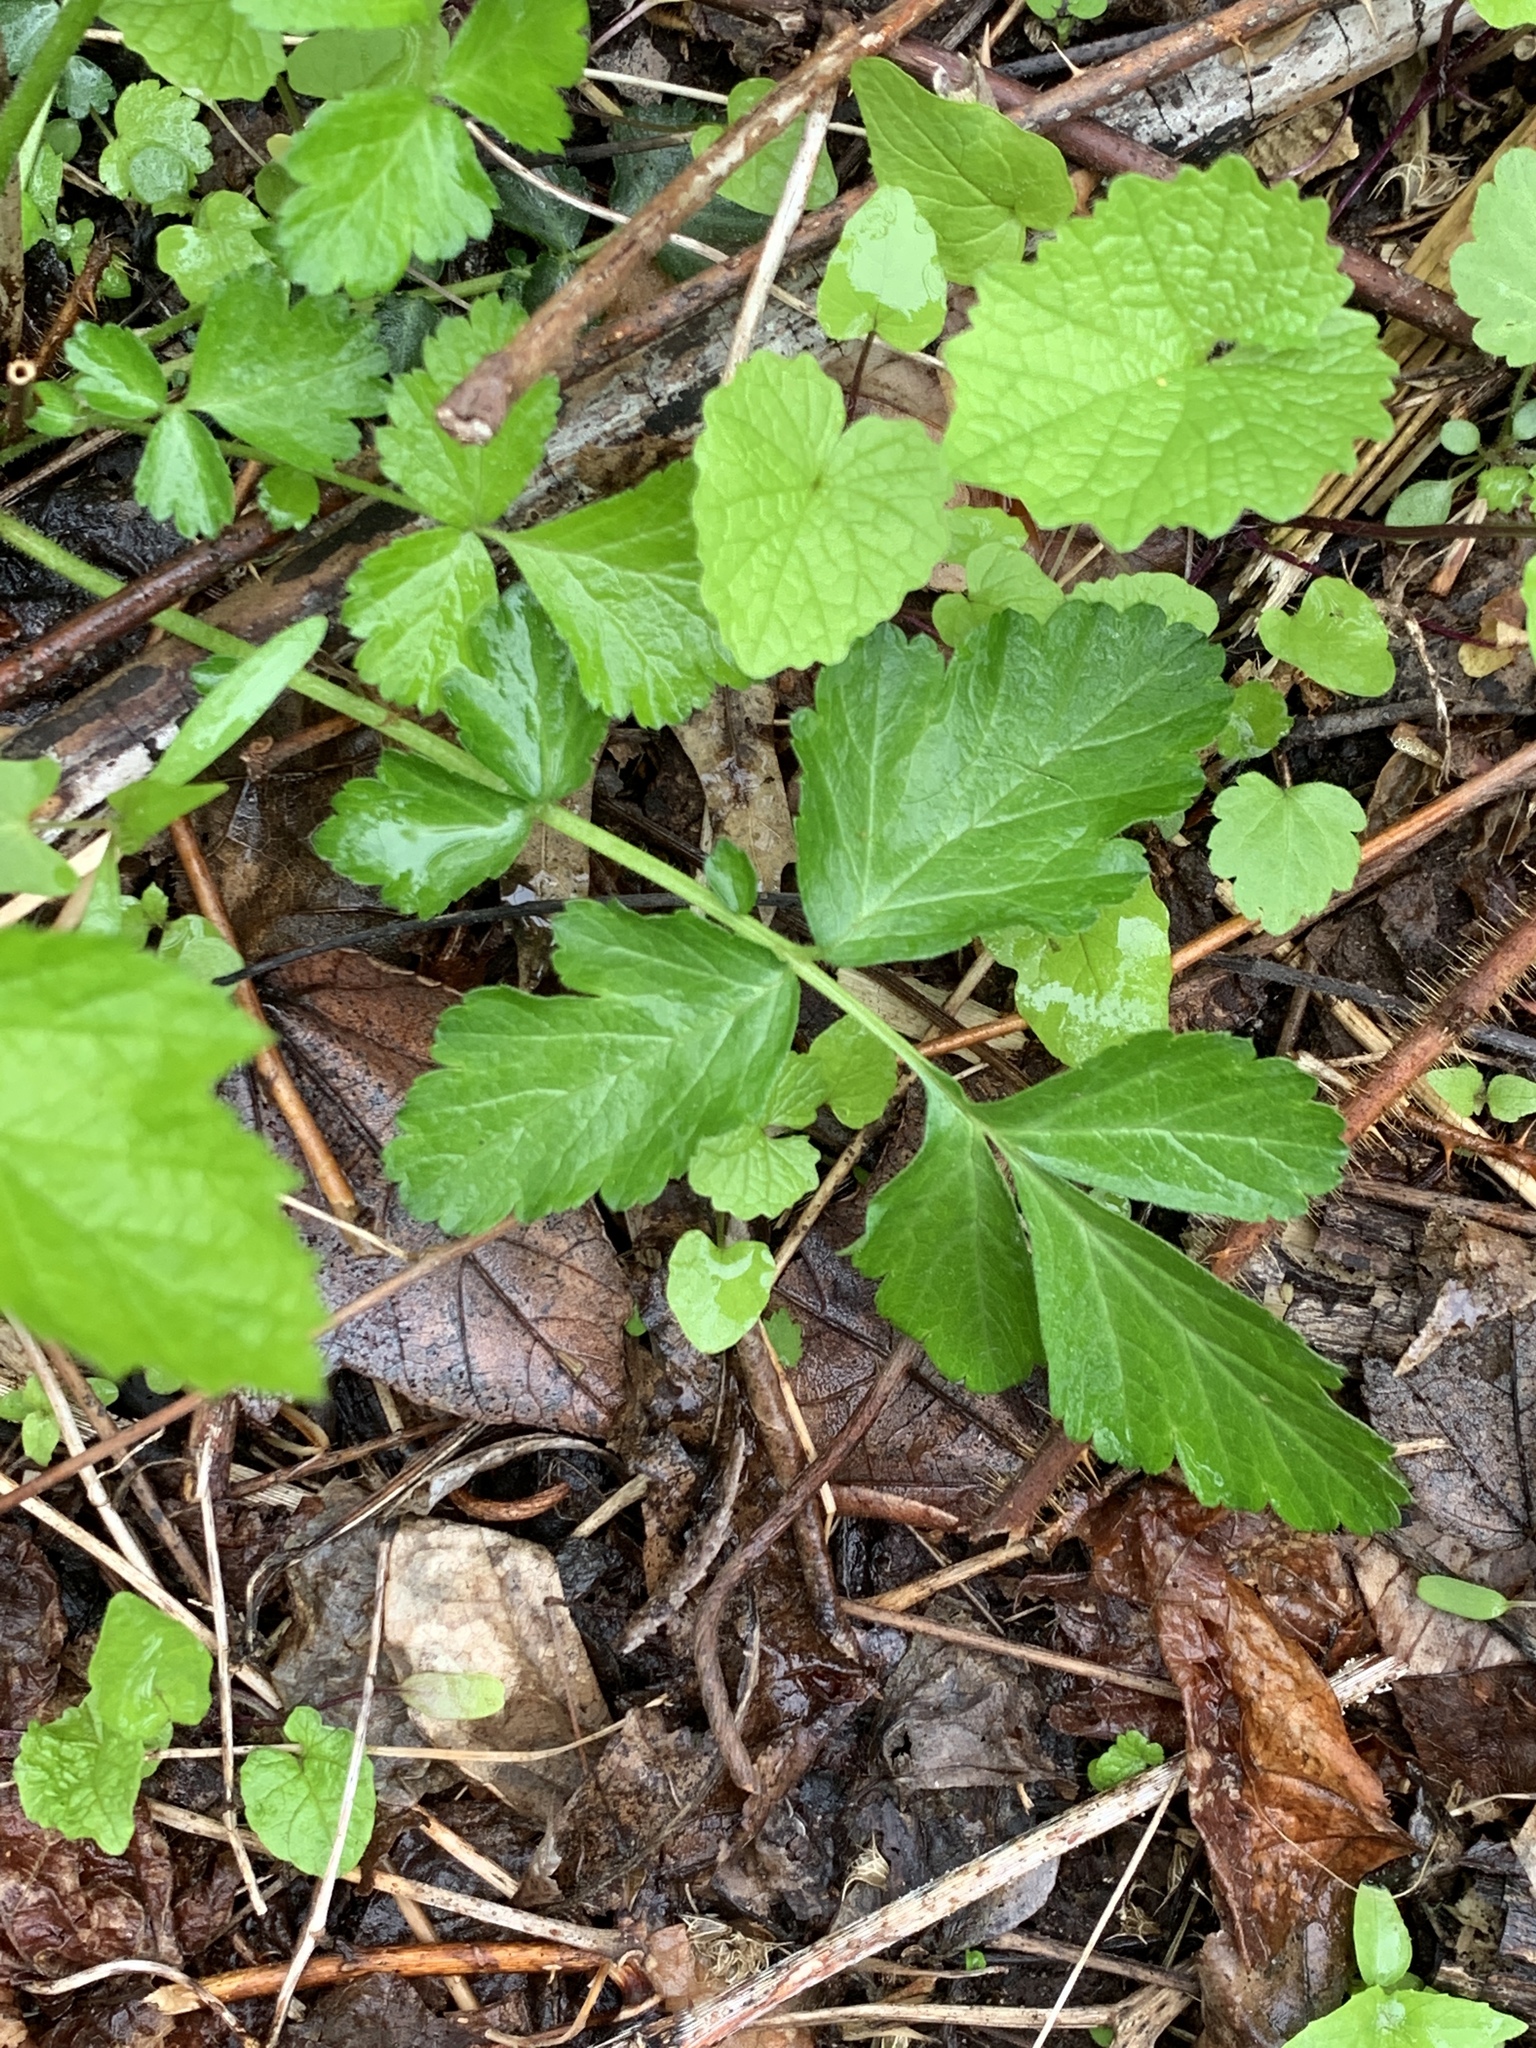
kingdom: Plantae
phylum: Tracheophyta
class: Magnoliopsida
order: Rosales
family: Rosaceae
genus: Geum
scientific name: Geum canadense
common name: White avens
